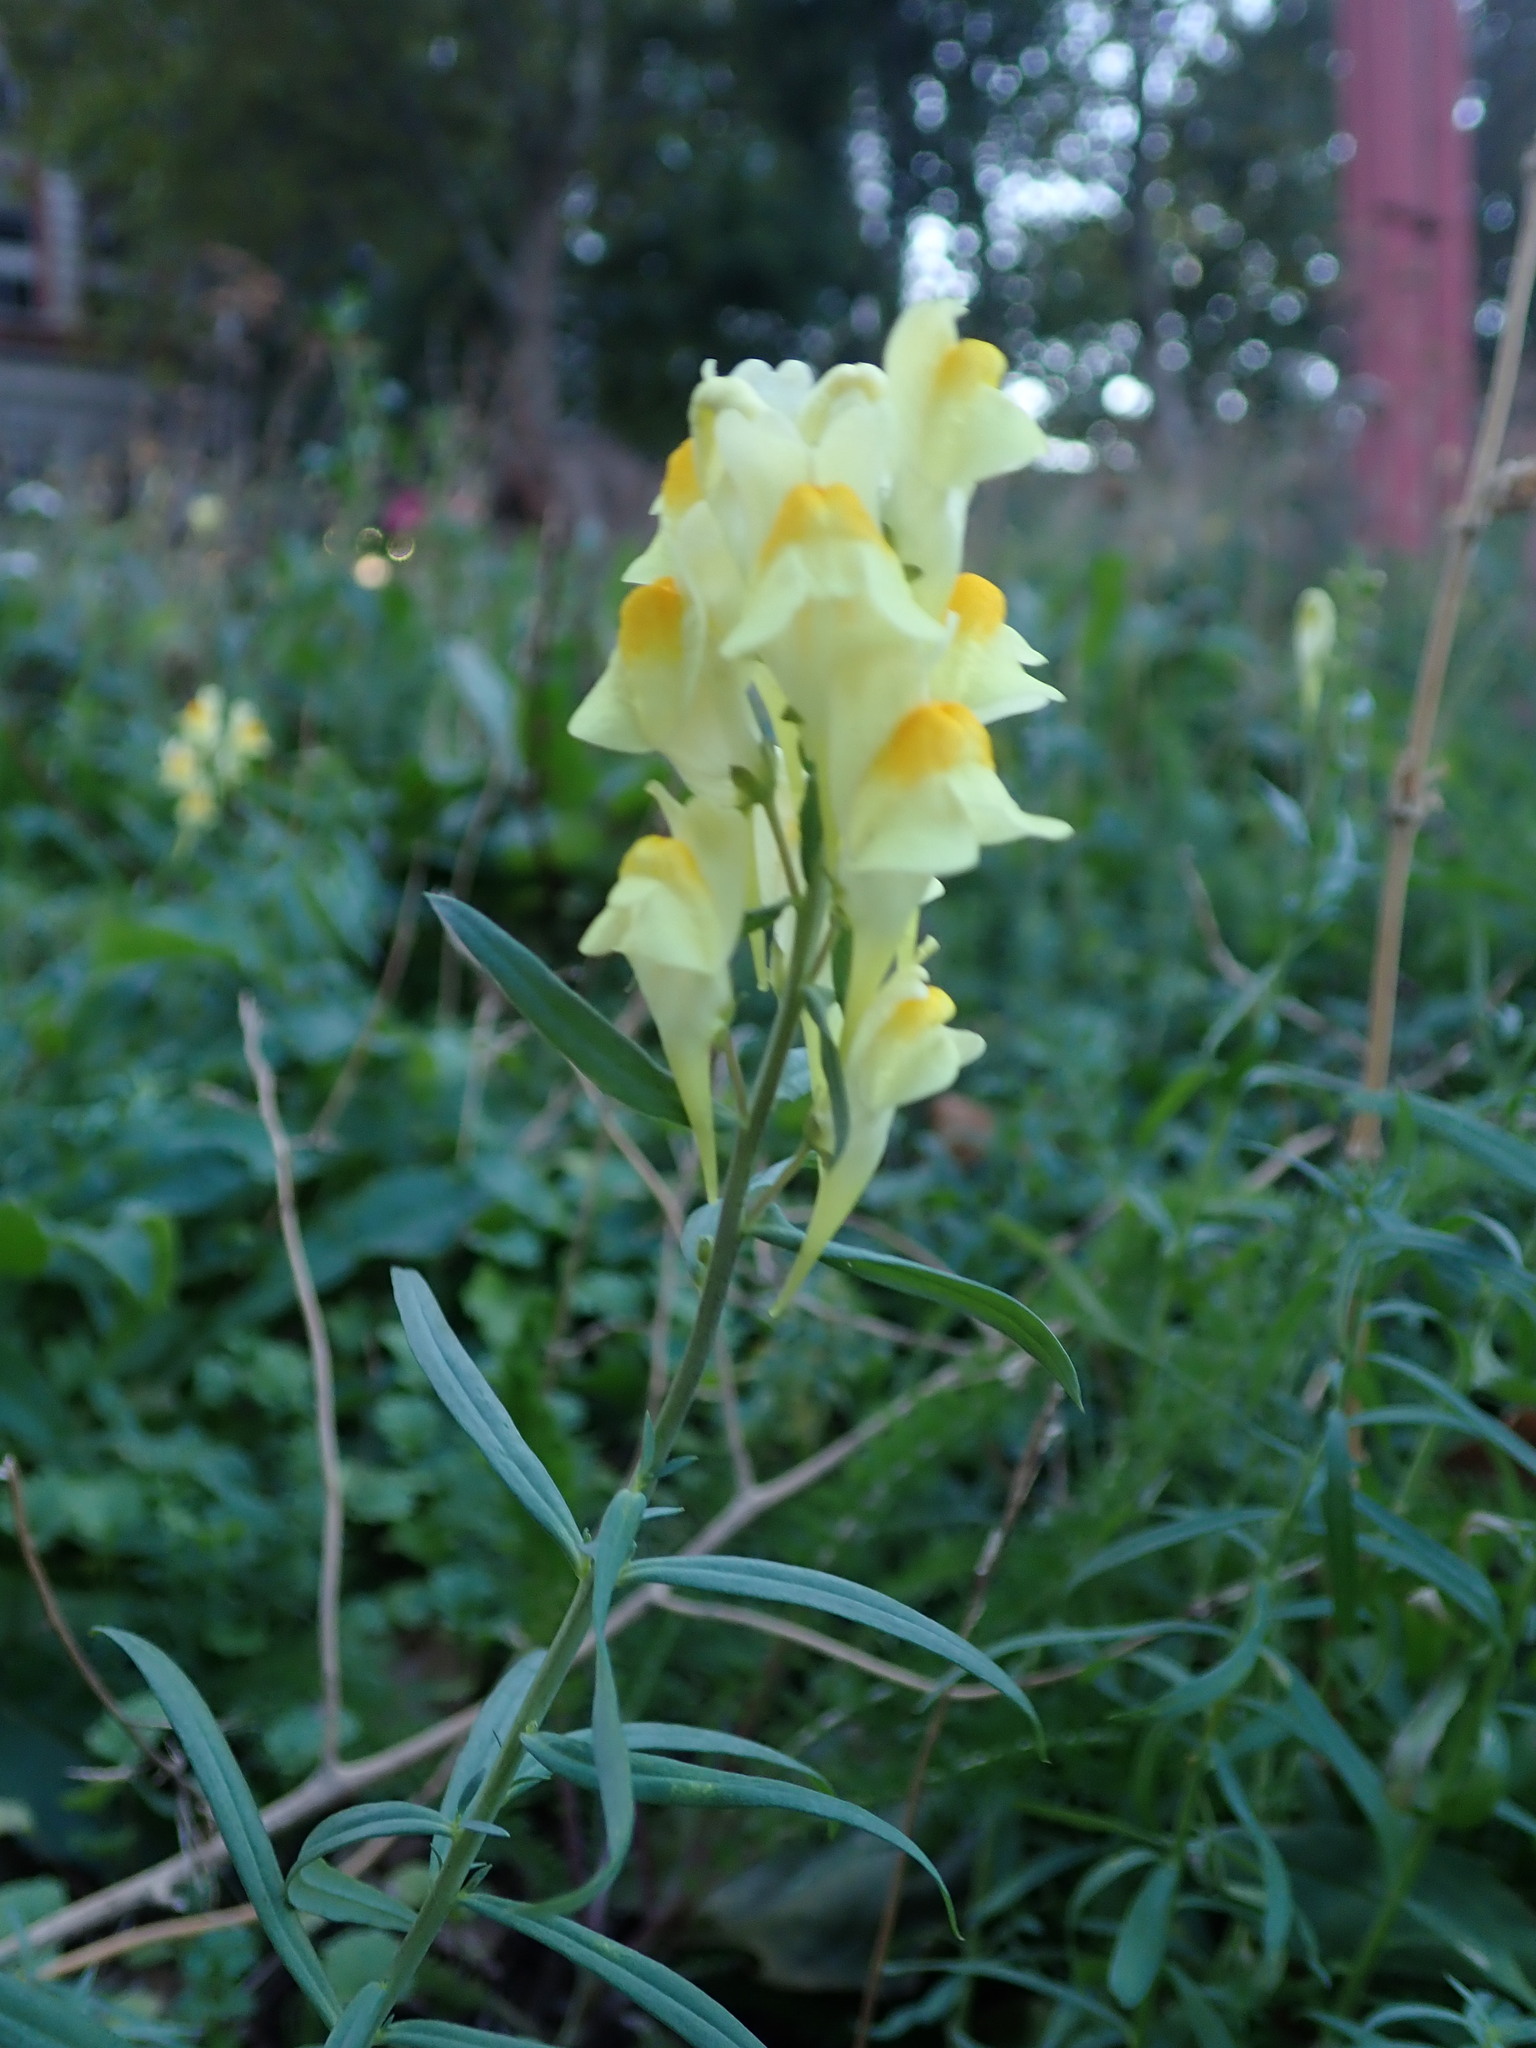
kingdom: Plantae
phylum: Tracheophyta
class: Magnoliopsida
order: Lamiales
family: Plantaginaceae
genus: Linaria
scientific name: Linaria vulgaris
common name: Butter and eggs
